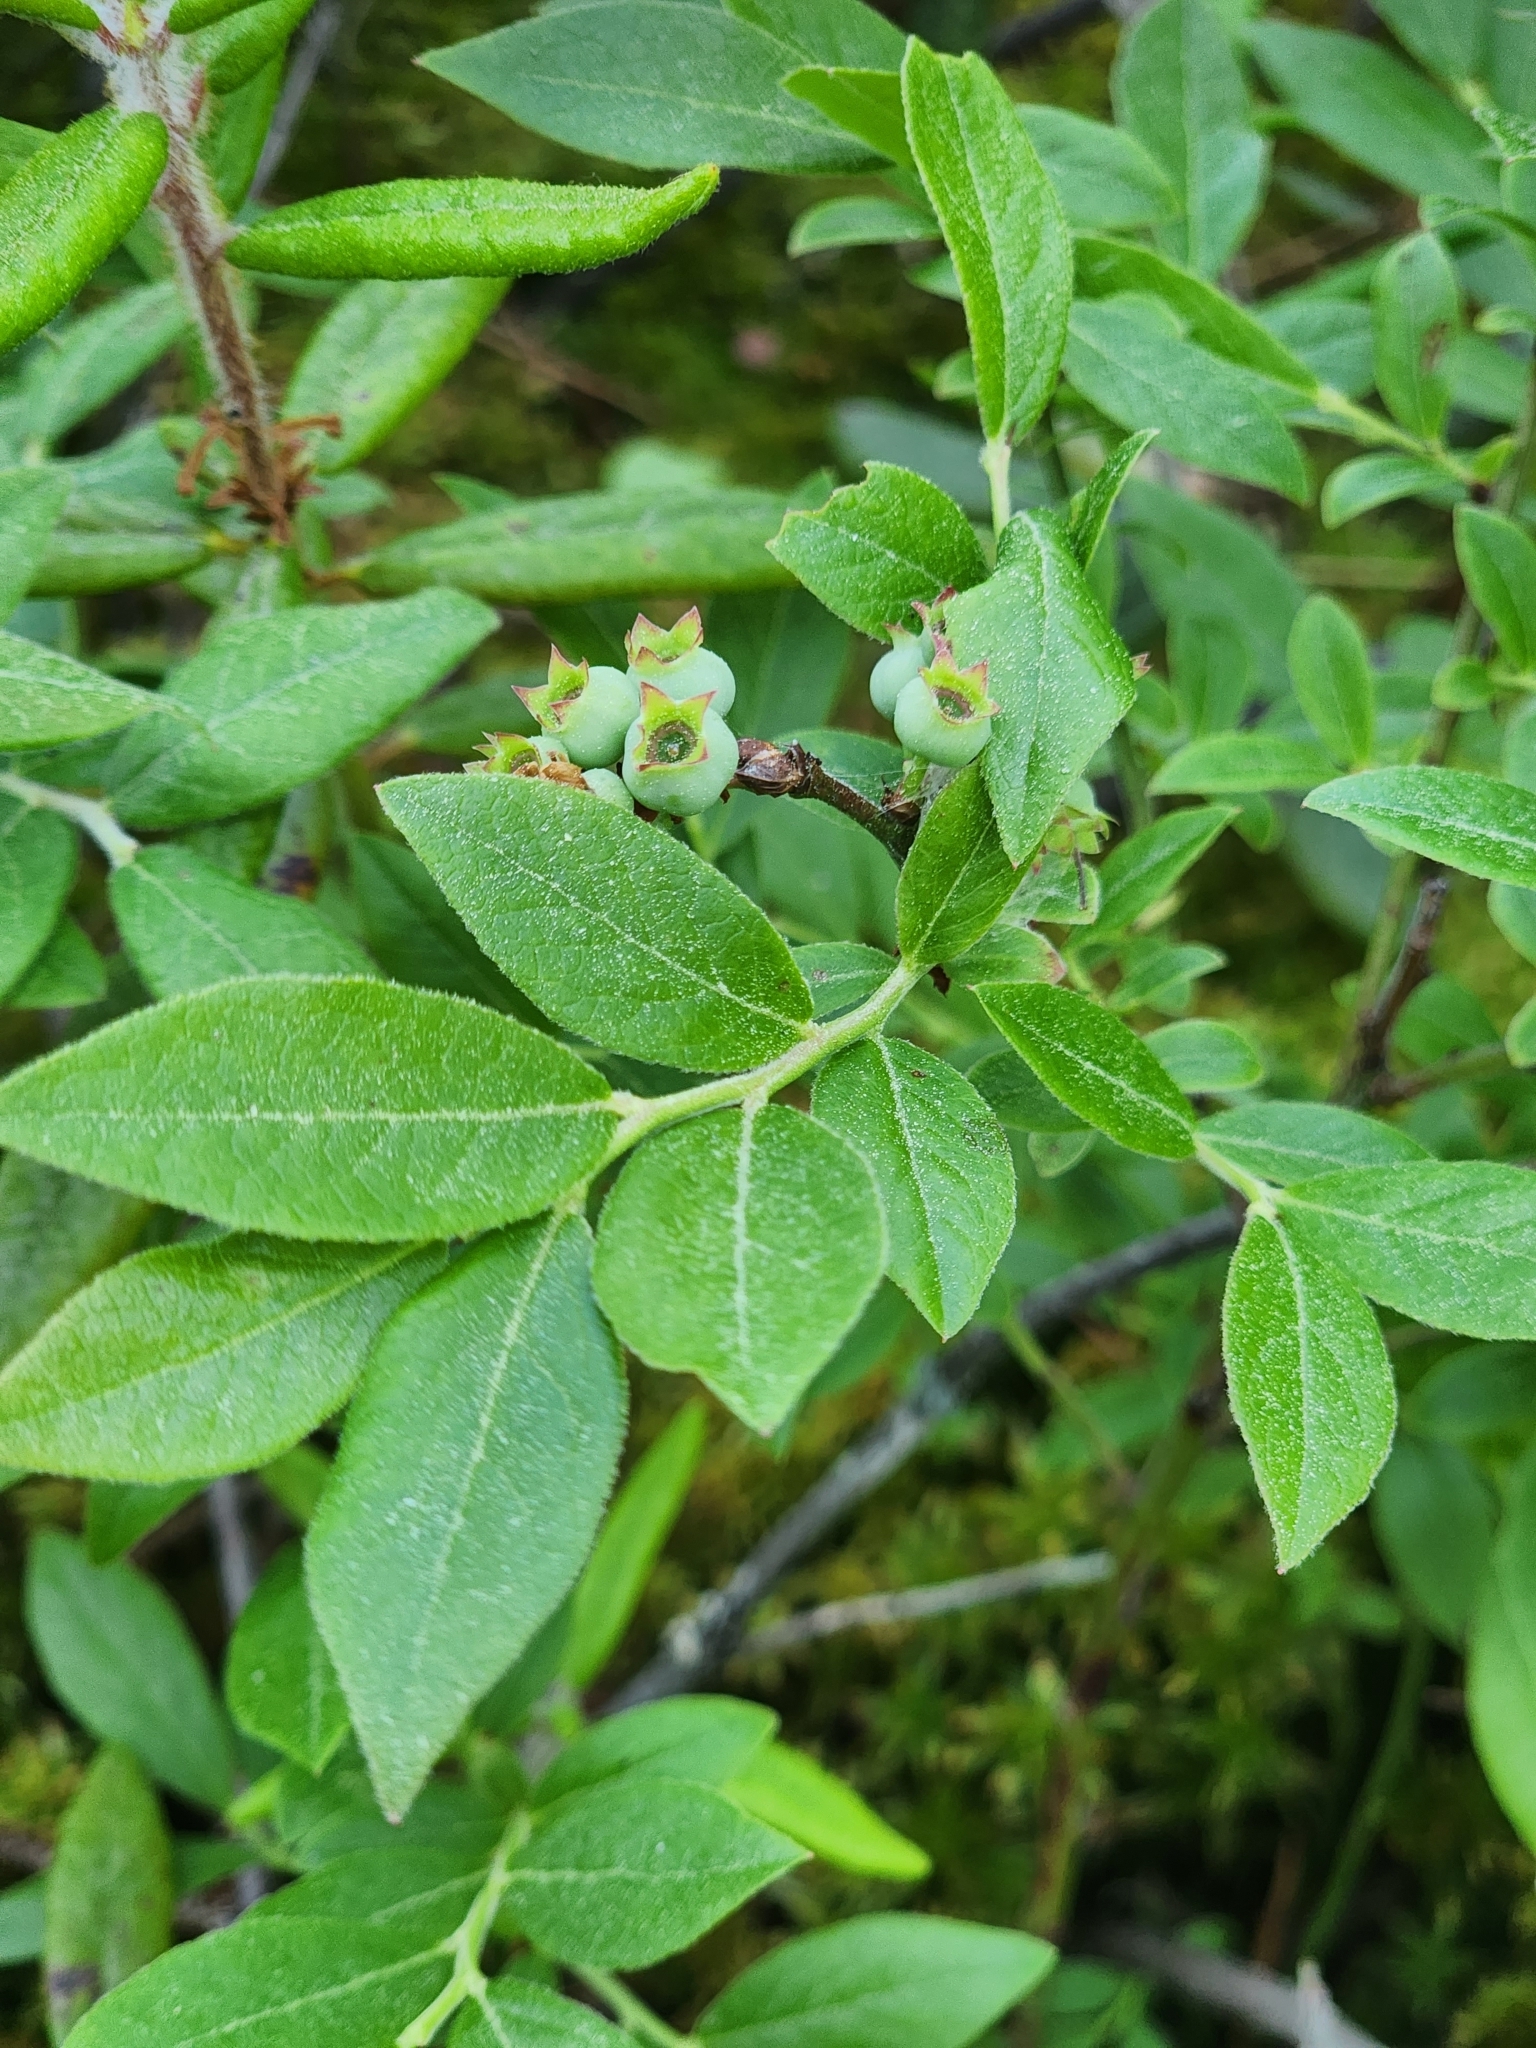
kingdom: Plantae
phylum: Tracheophyta
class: Magnoliopsida
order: Ericales
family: Ericaceae
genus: Vaccinium
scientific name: Vaccinium myrtilloides
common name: Canada blueberry
